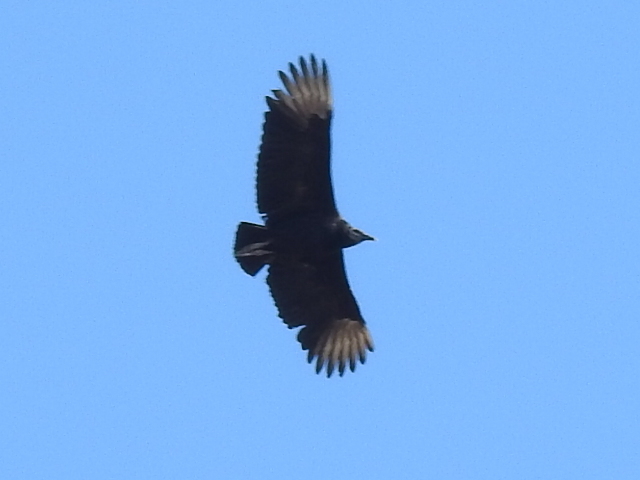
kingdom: Animalia
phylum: Chordata
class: Aves
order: Accipitriformes
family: Cathartidae
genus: Coragyps
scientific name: Coragyps atratus
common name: Black vulture
